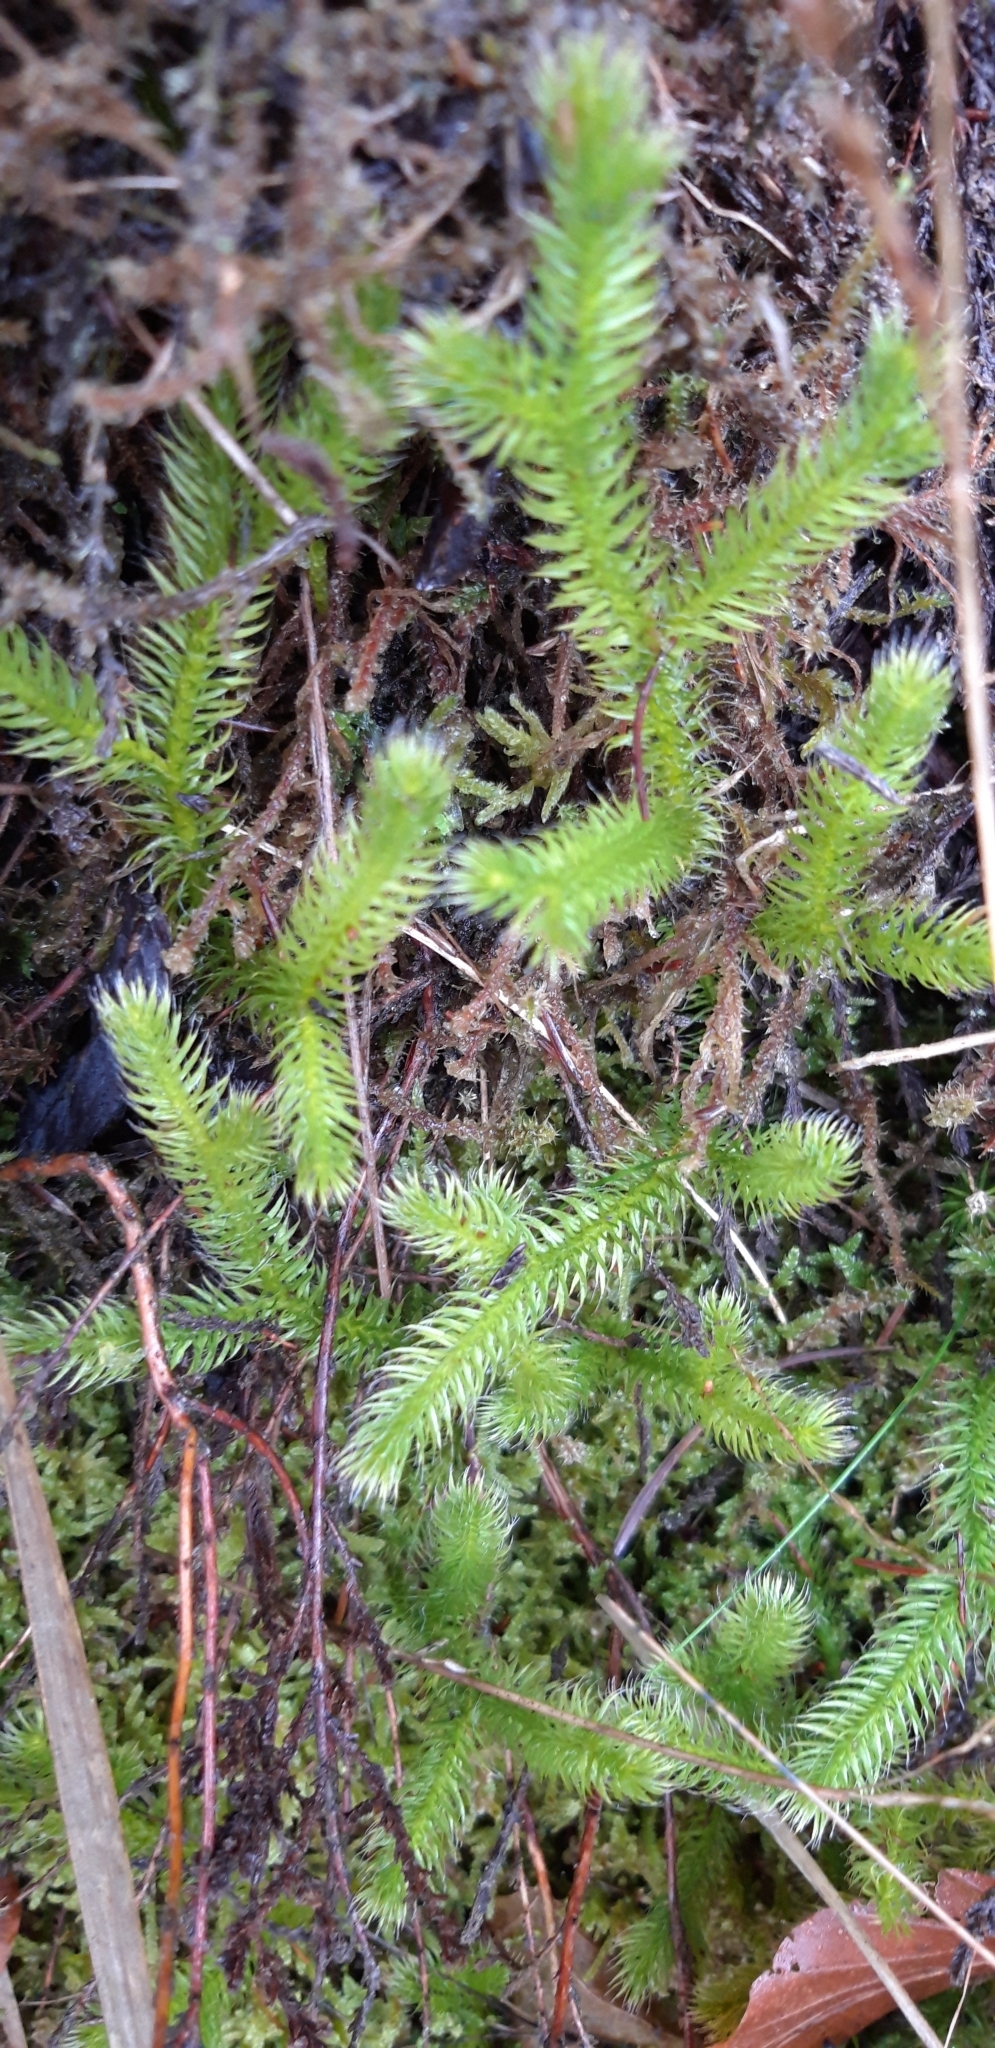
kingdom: Plantae
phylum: Tracheophyta
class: Lycopodiopsida
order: Lycopodiales
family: Lycopodiaceae
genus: Lycopodium
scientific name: Lycopodium clavatum
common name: Stag's-horn clubmoss
